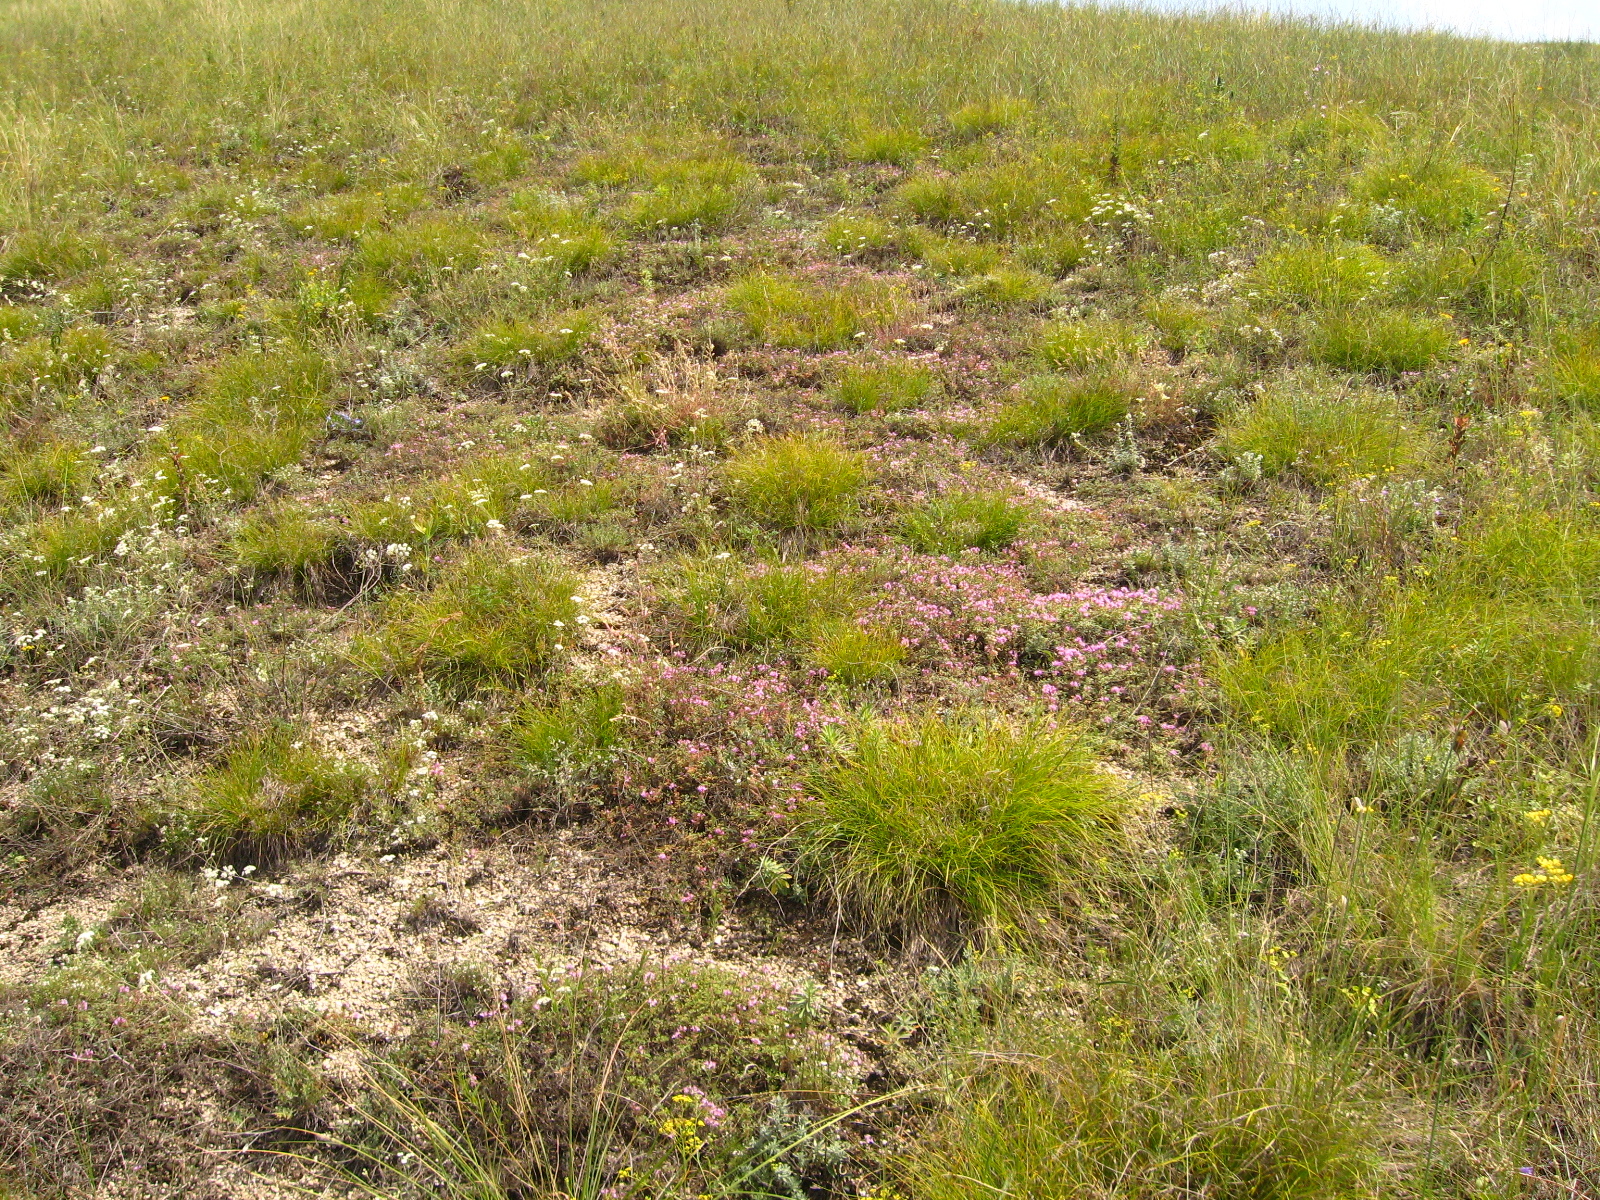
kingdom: Plantae
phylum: Tracheophyta
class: Liliopsida
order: Poales
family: Cyperaceae
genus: Carex
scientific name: Carex humilis
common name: Dwarf sedge
